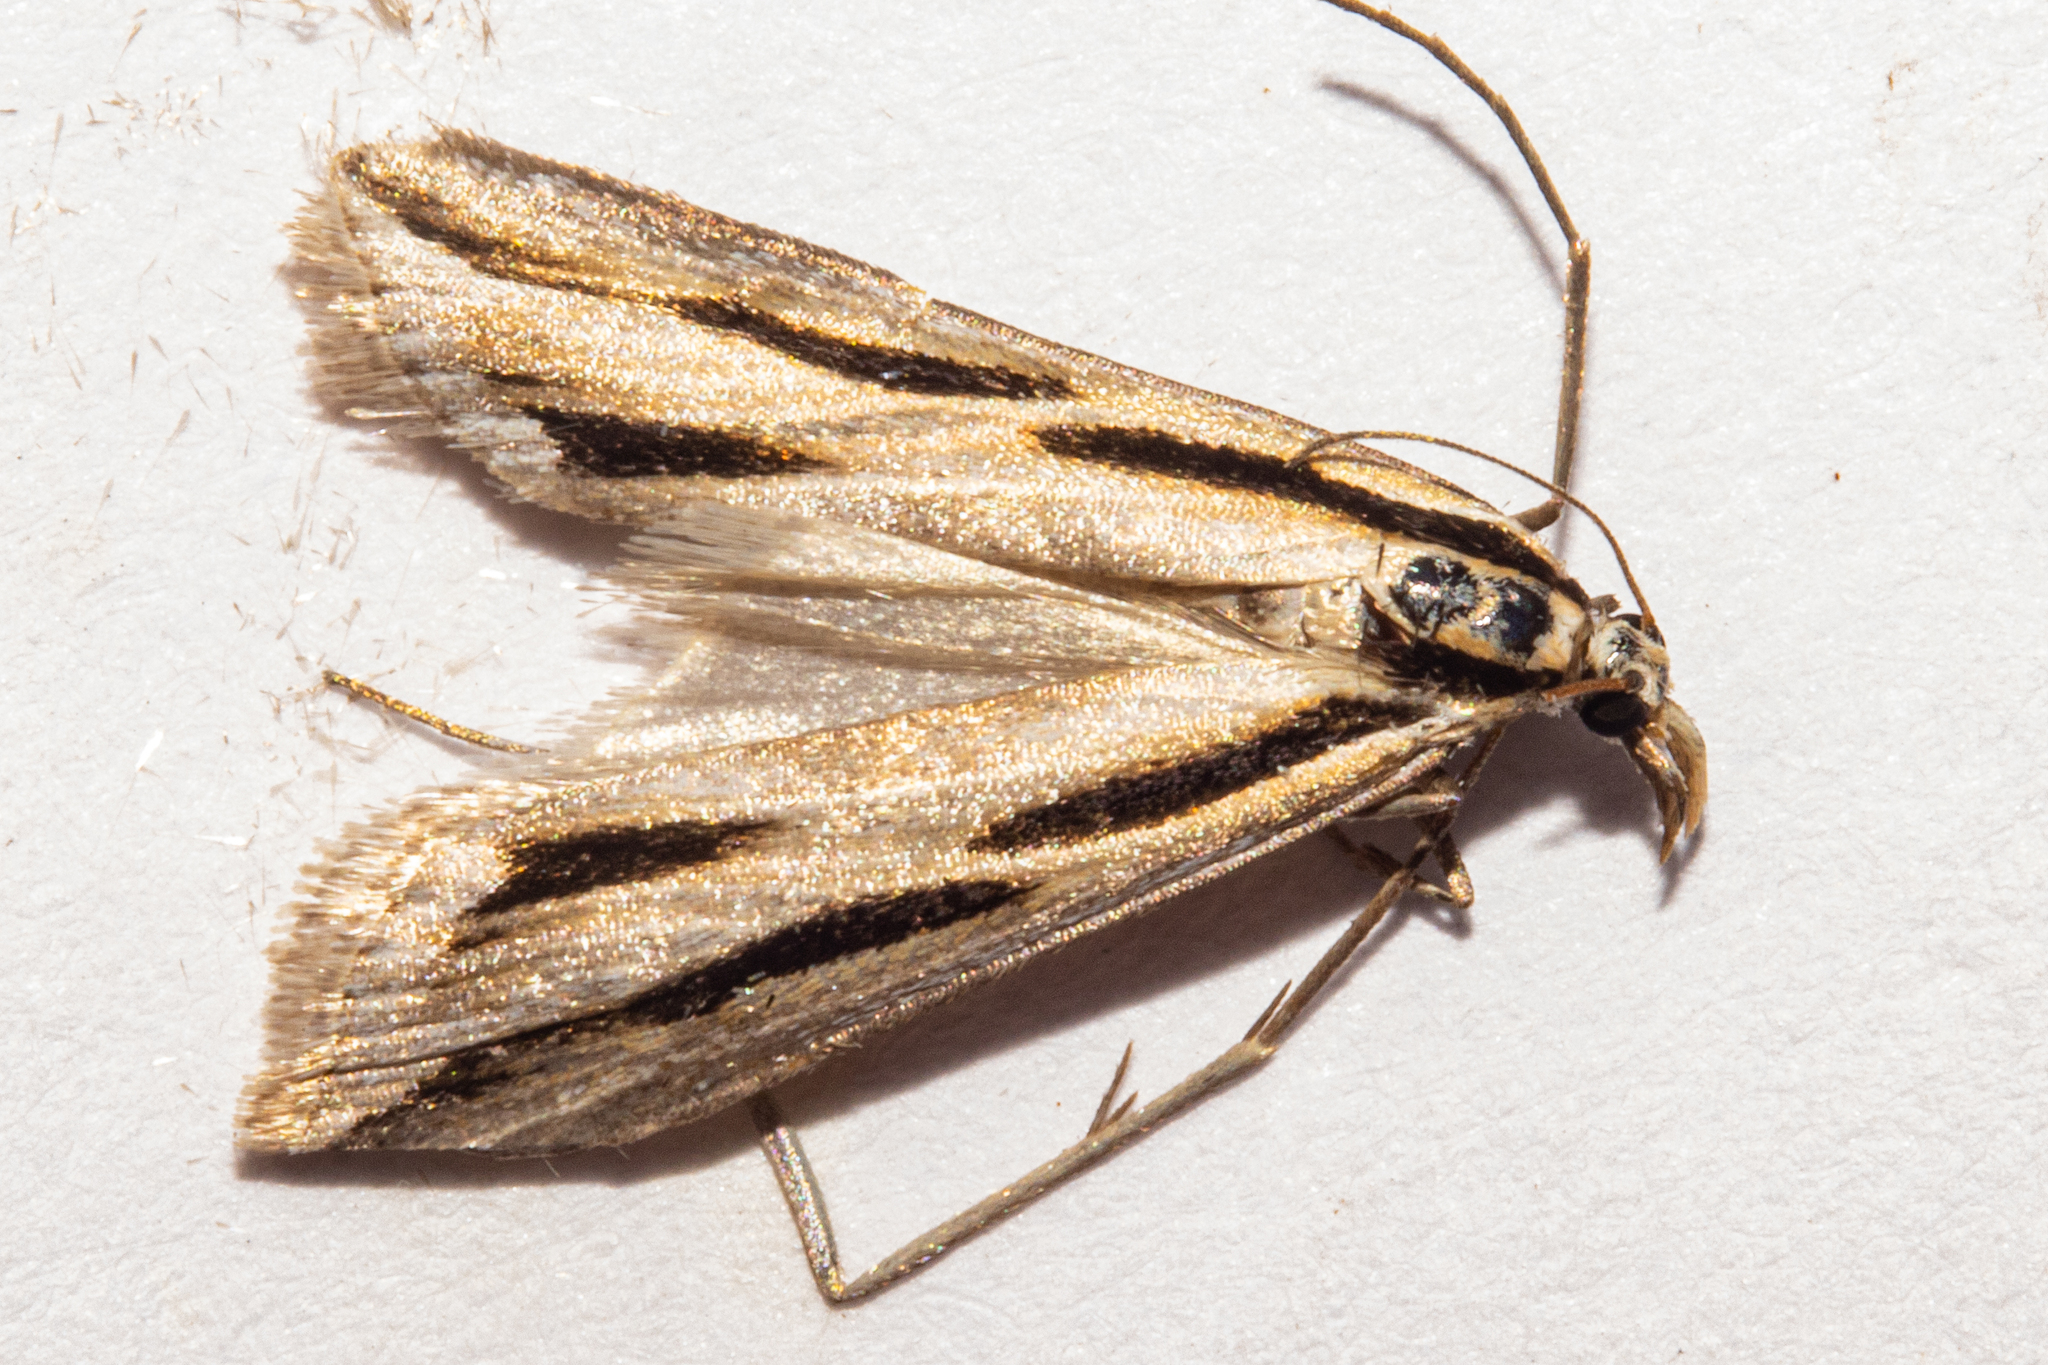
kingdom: Animalia
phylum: Arthropoda
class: Insecta
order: Lepidoptera
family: Crambidae
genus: Scoparia
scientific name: Scoparia claranota
